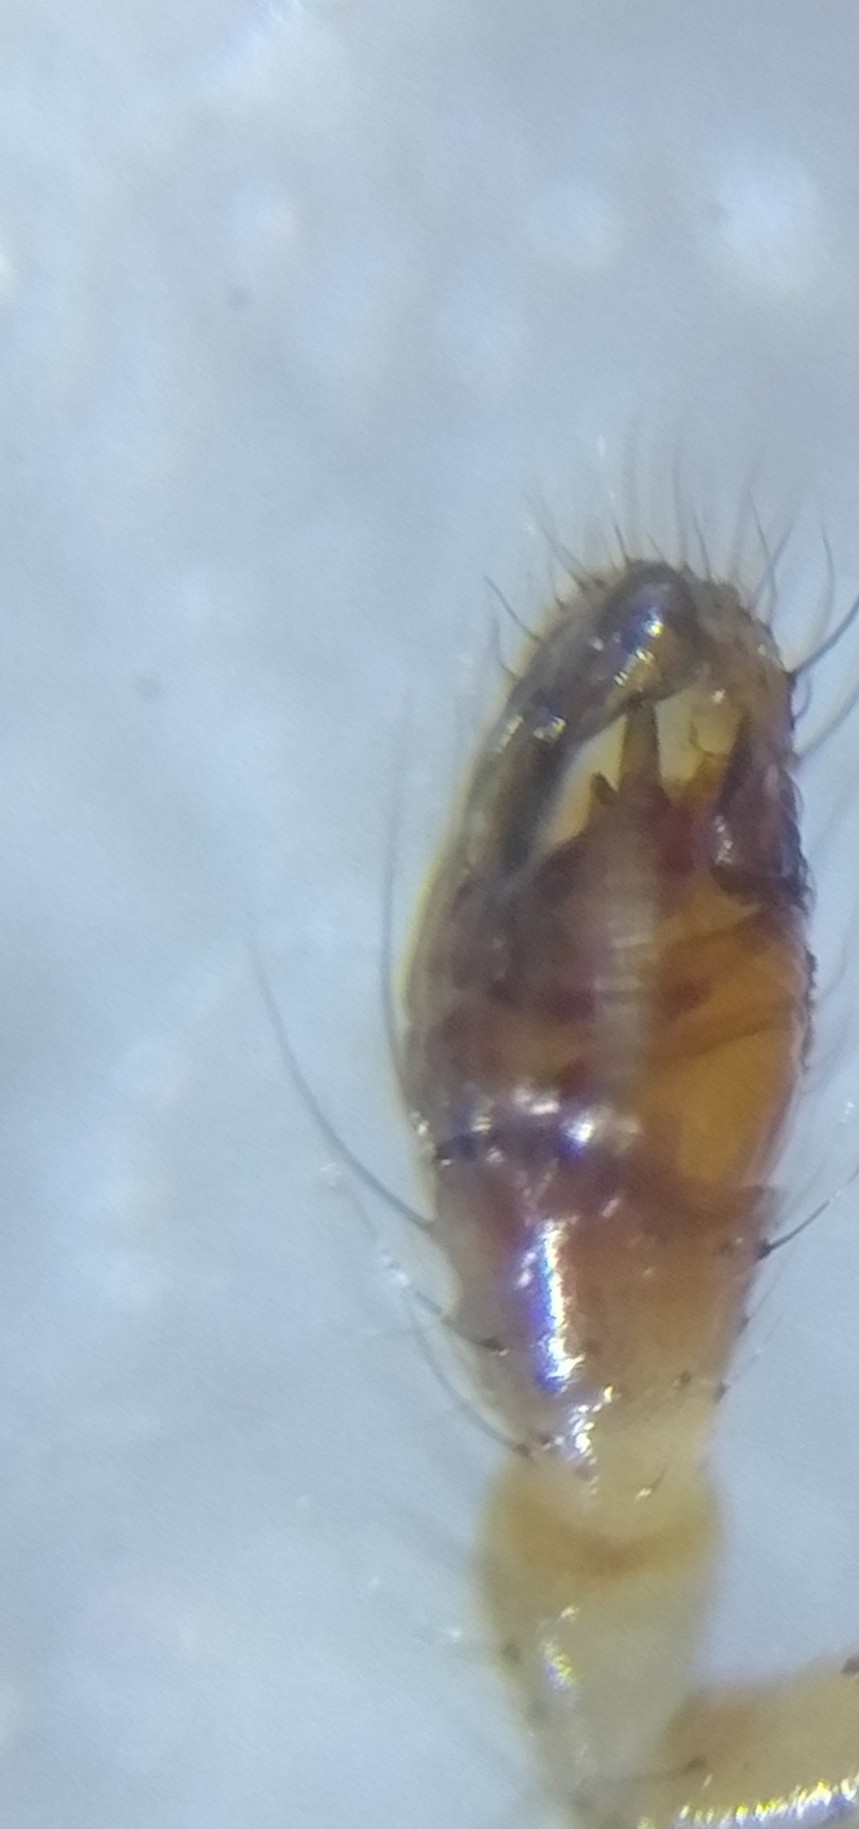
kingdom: Animalia
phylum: Arthropoda
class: Arachnida
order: Araneae
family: Theridiidae
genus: Phylloneta
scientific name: Phylloneta impressa
